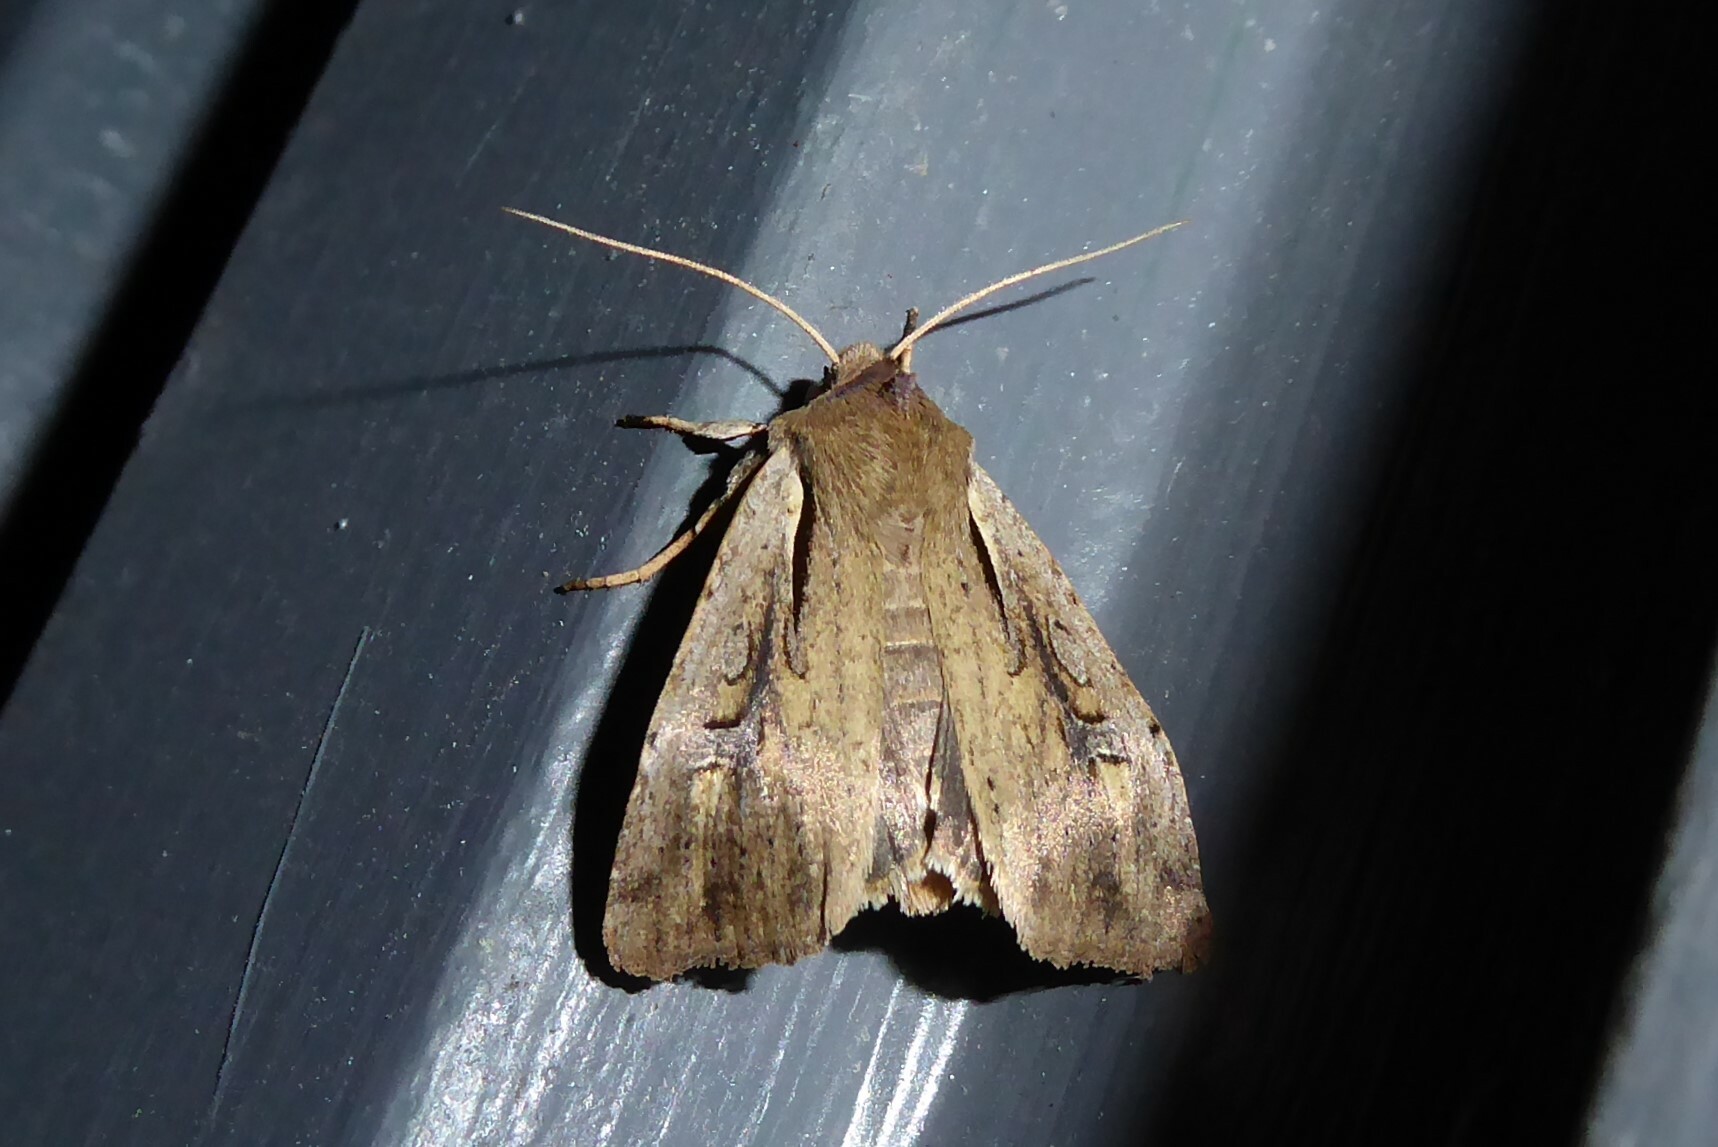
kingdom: Animalia
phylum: Arthropoda
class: Insecta
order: Lepidoptera
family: Noctuidae
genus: Ichneutica
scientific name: Ichneutica atristriga
